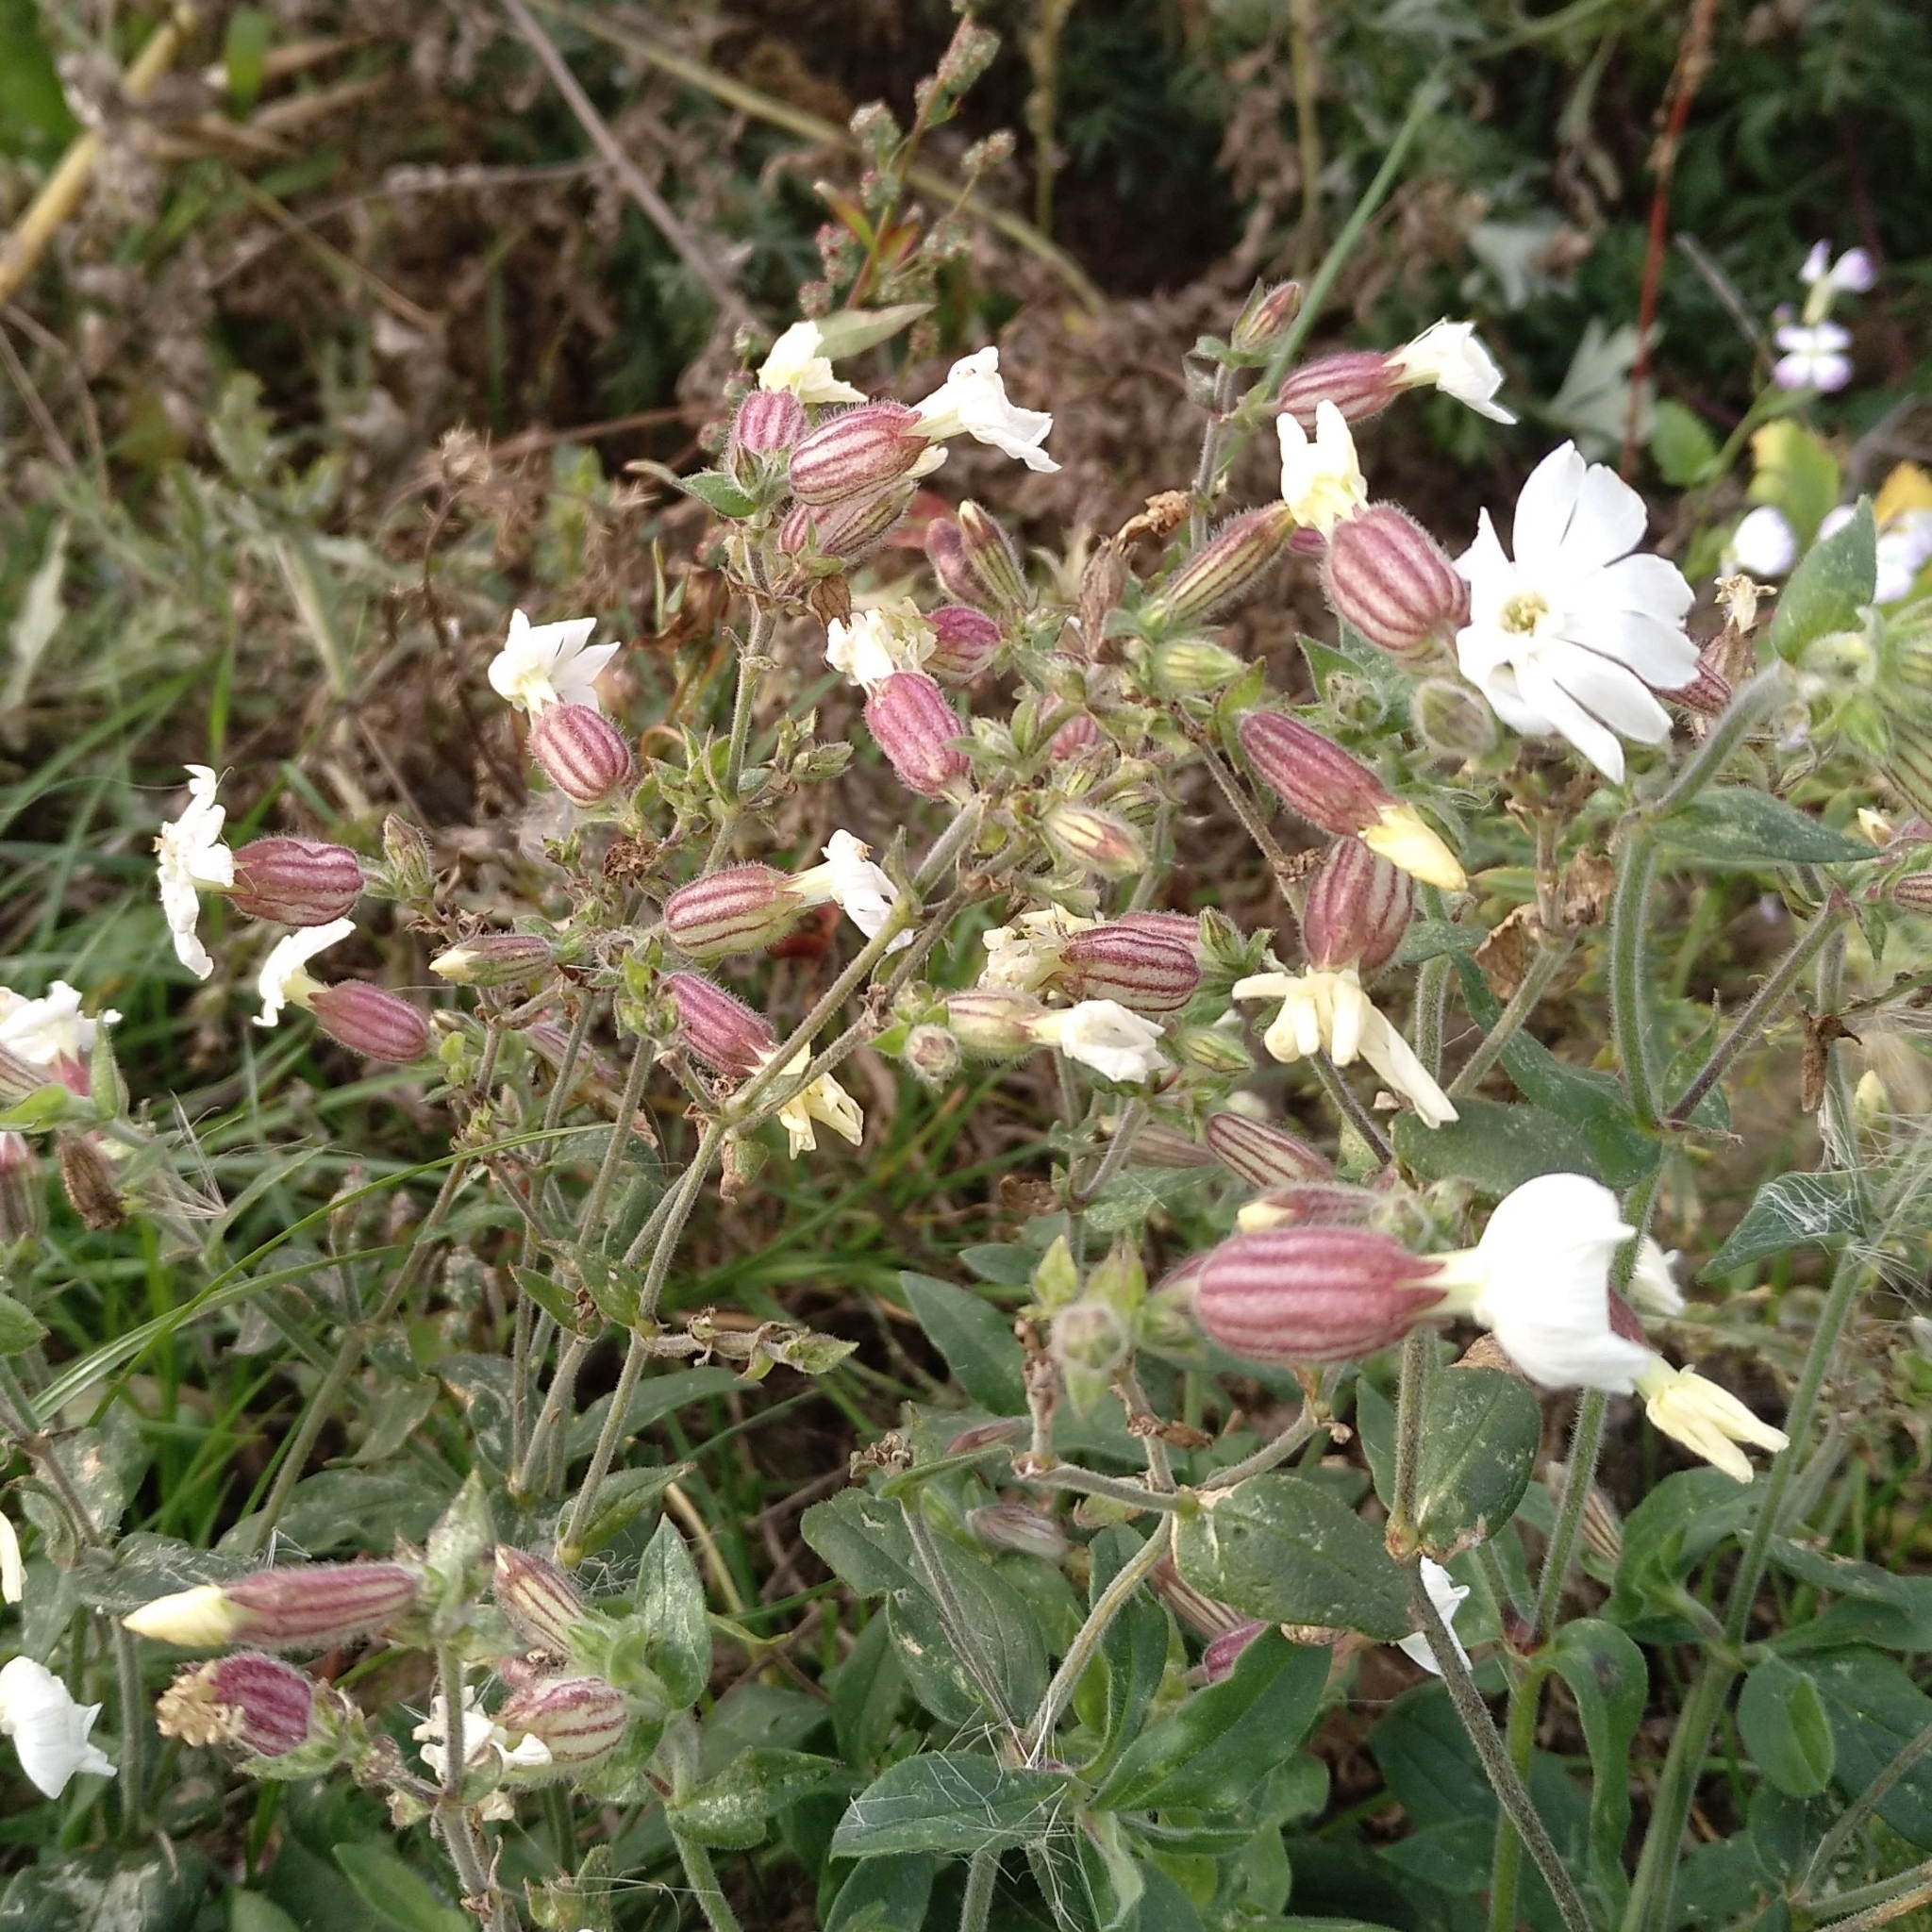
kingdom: Plantae
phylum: Tracheophyta
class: Magnoliopsida
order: Caryophyllales
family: Caryophyllaceae
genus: Silene
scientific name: Silene latifolia
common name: White campion
